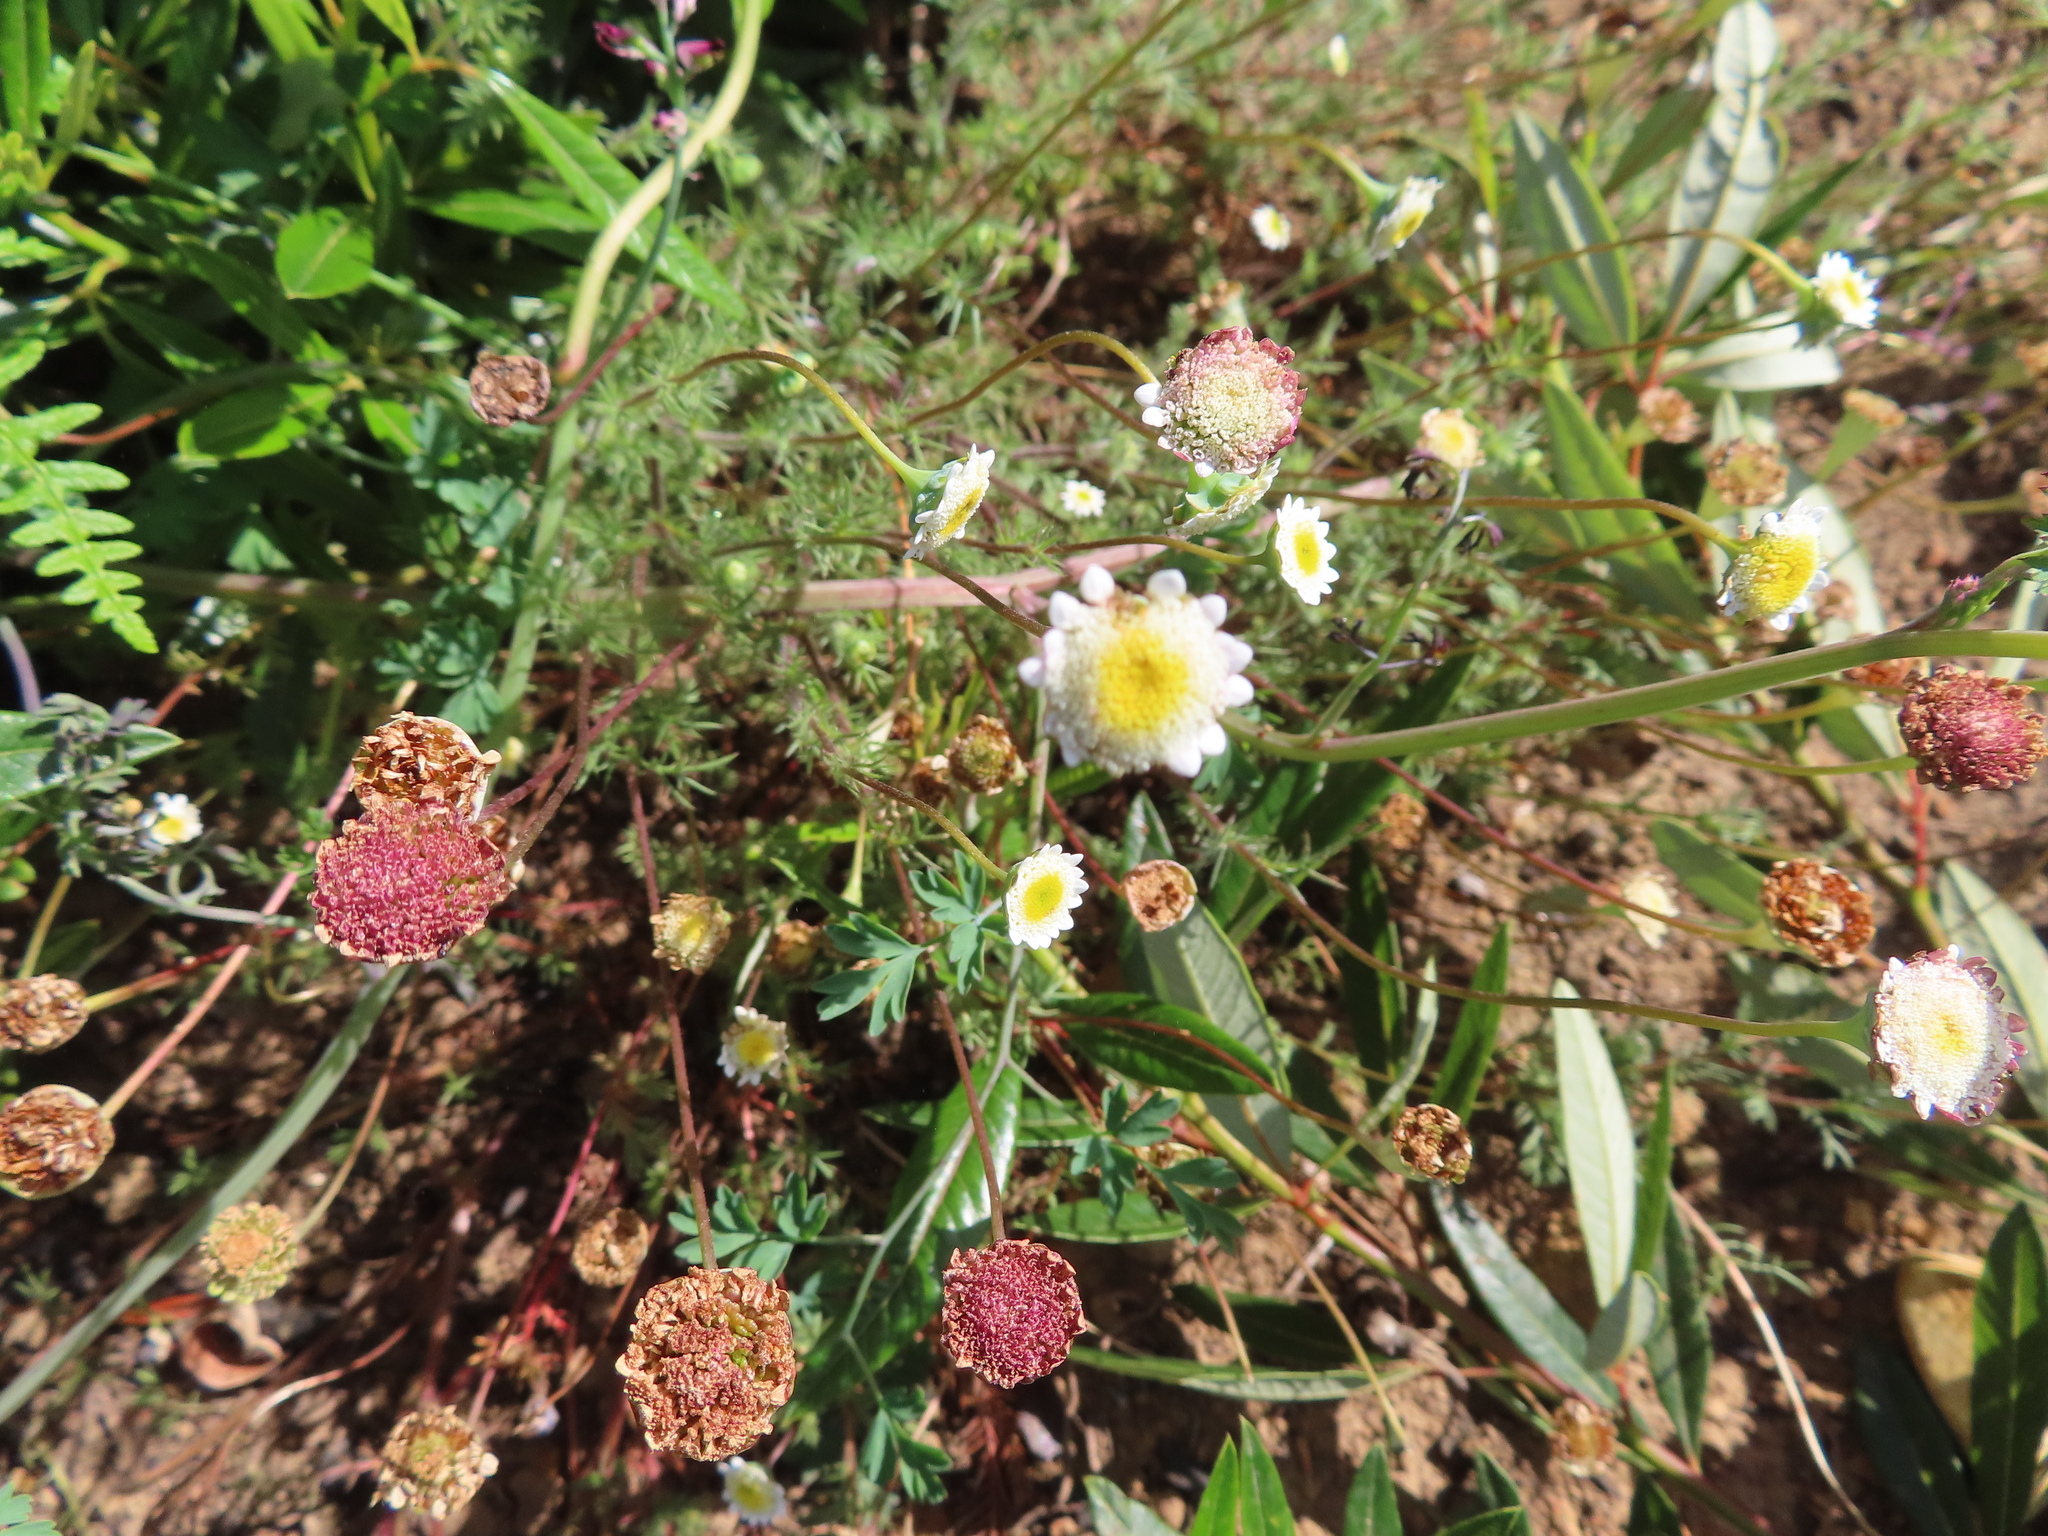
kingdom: Plantae
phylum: Tracheophyta
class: Magnoliopsida
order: Asterales
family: Asteraceae
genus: Cotula
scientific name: Cotula turbinata
